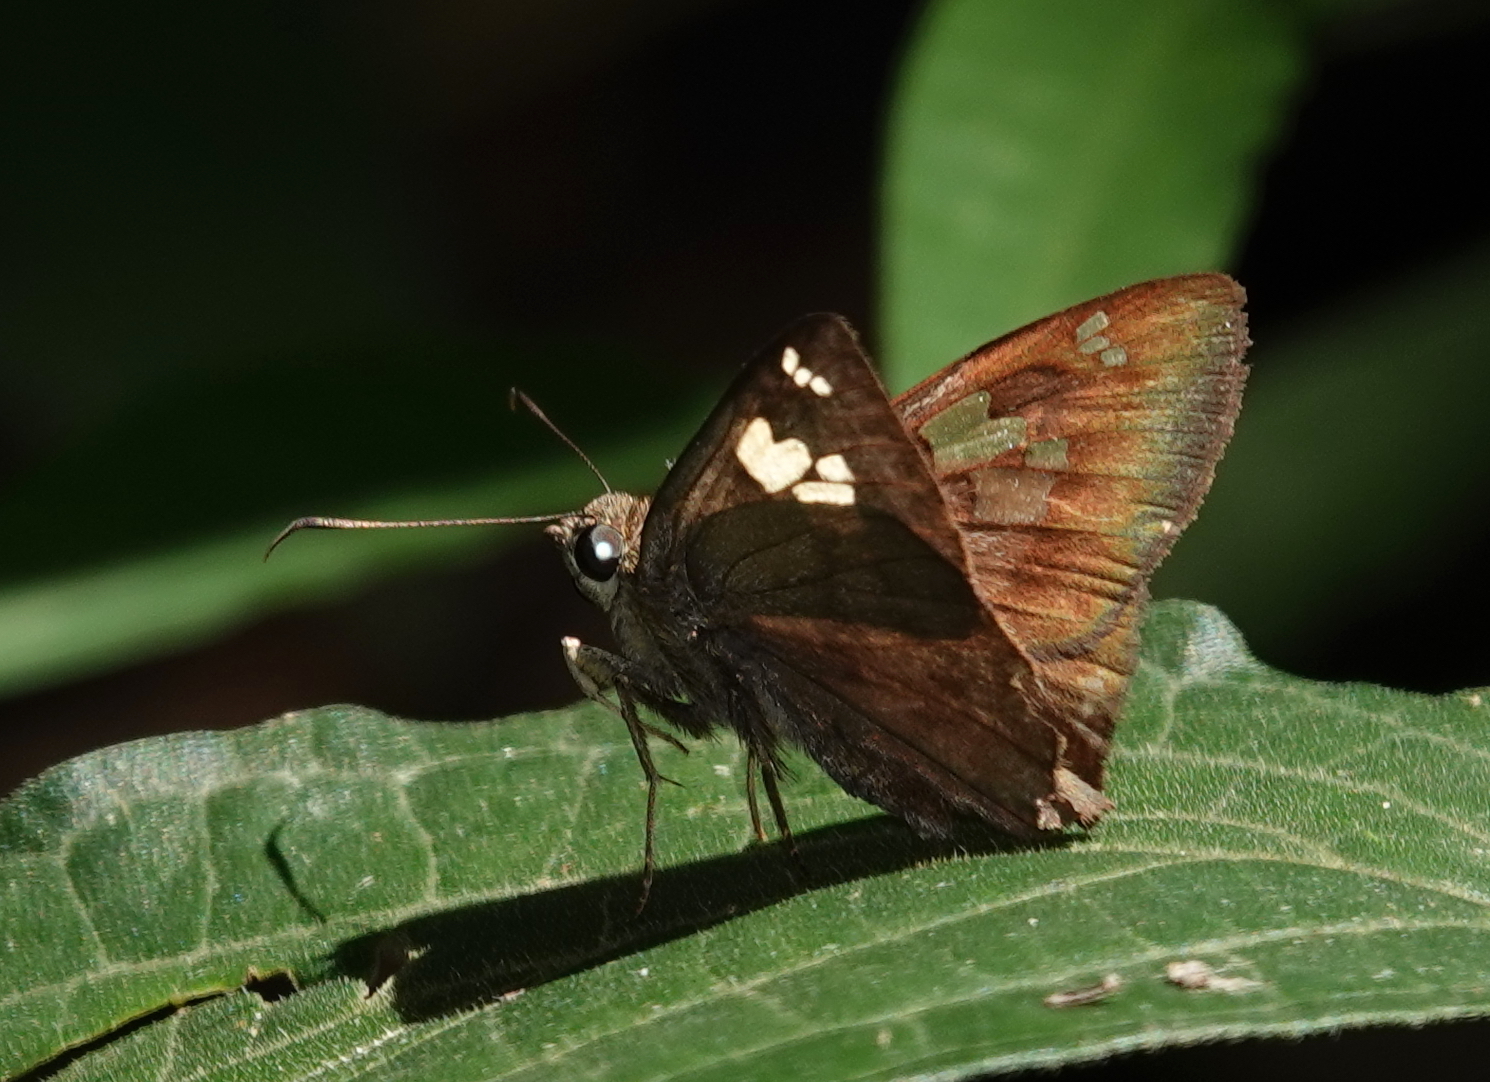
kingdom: Animalia
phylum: Arthropoda
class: Insecta
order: Lepidoptera
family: Hesperiidae
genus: Telemiades
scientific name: Telemiades avitus
